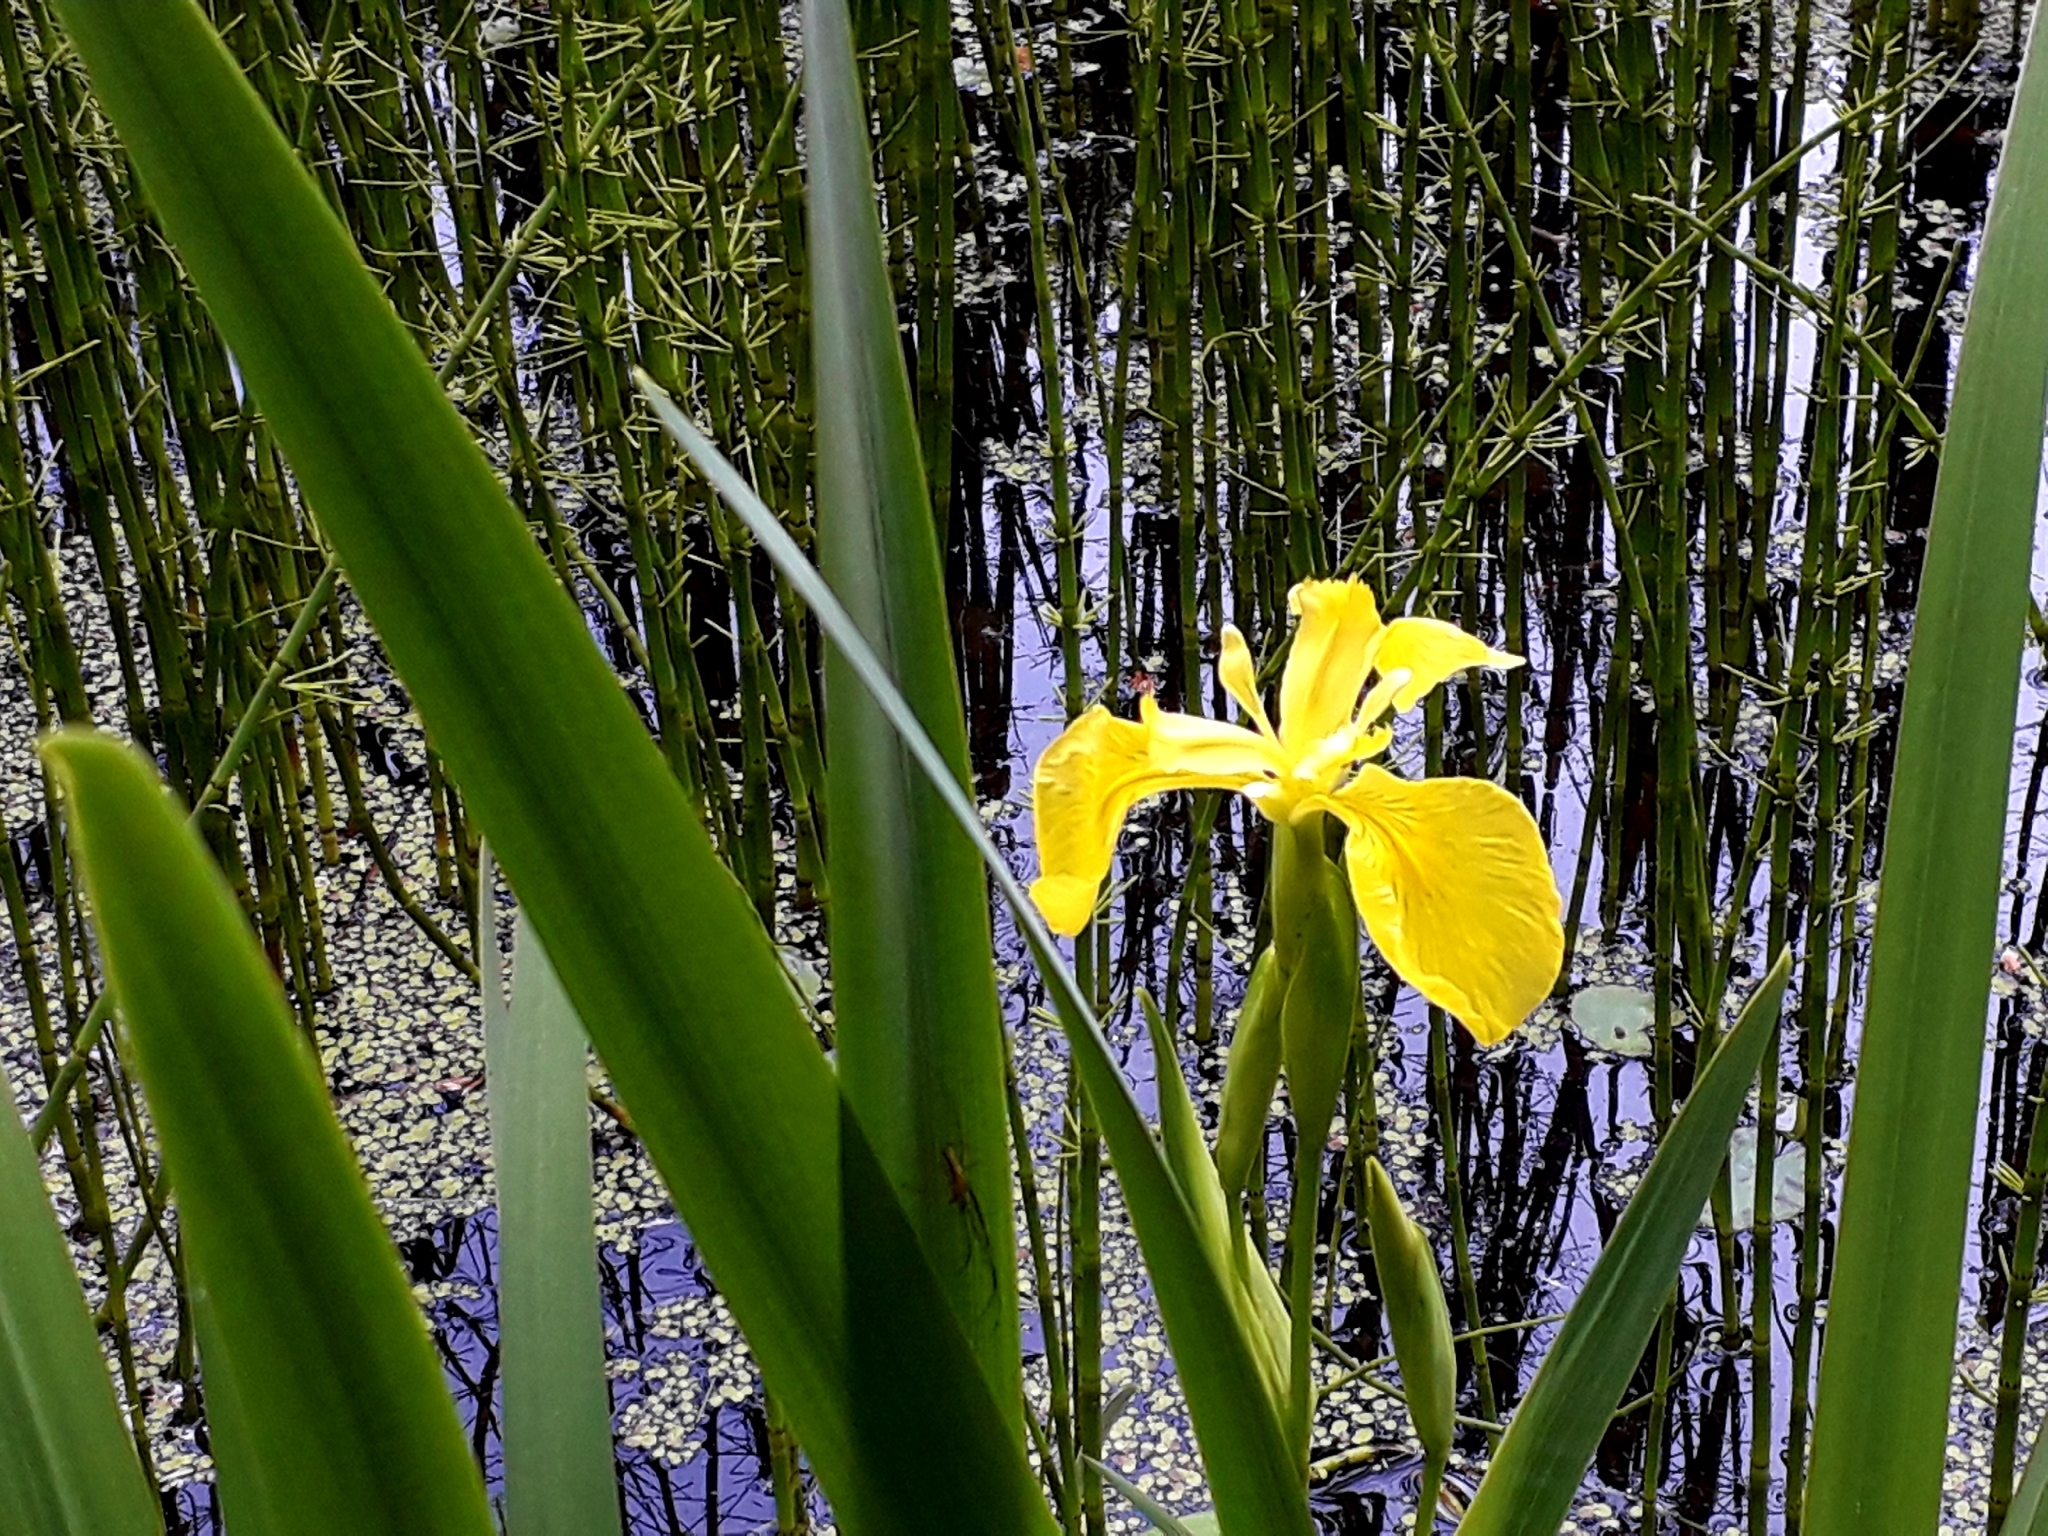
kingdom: Plantae
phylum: Tracheophyta
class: Liliopsida
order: Asparagales
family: Iridaceae
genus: Iris
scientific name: Iris pseudacorus
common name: Yellow flag
